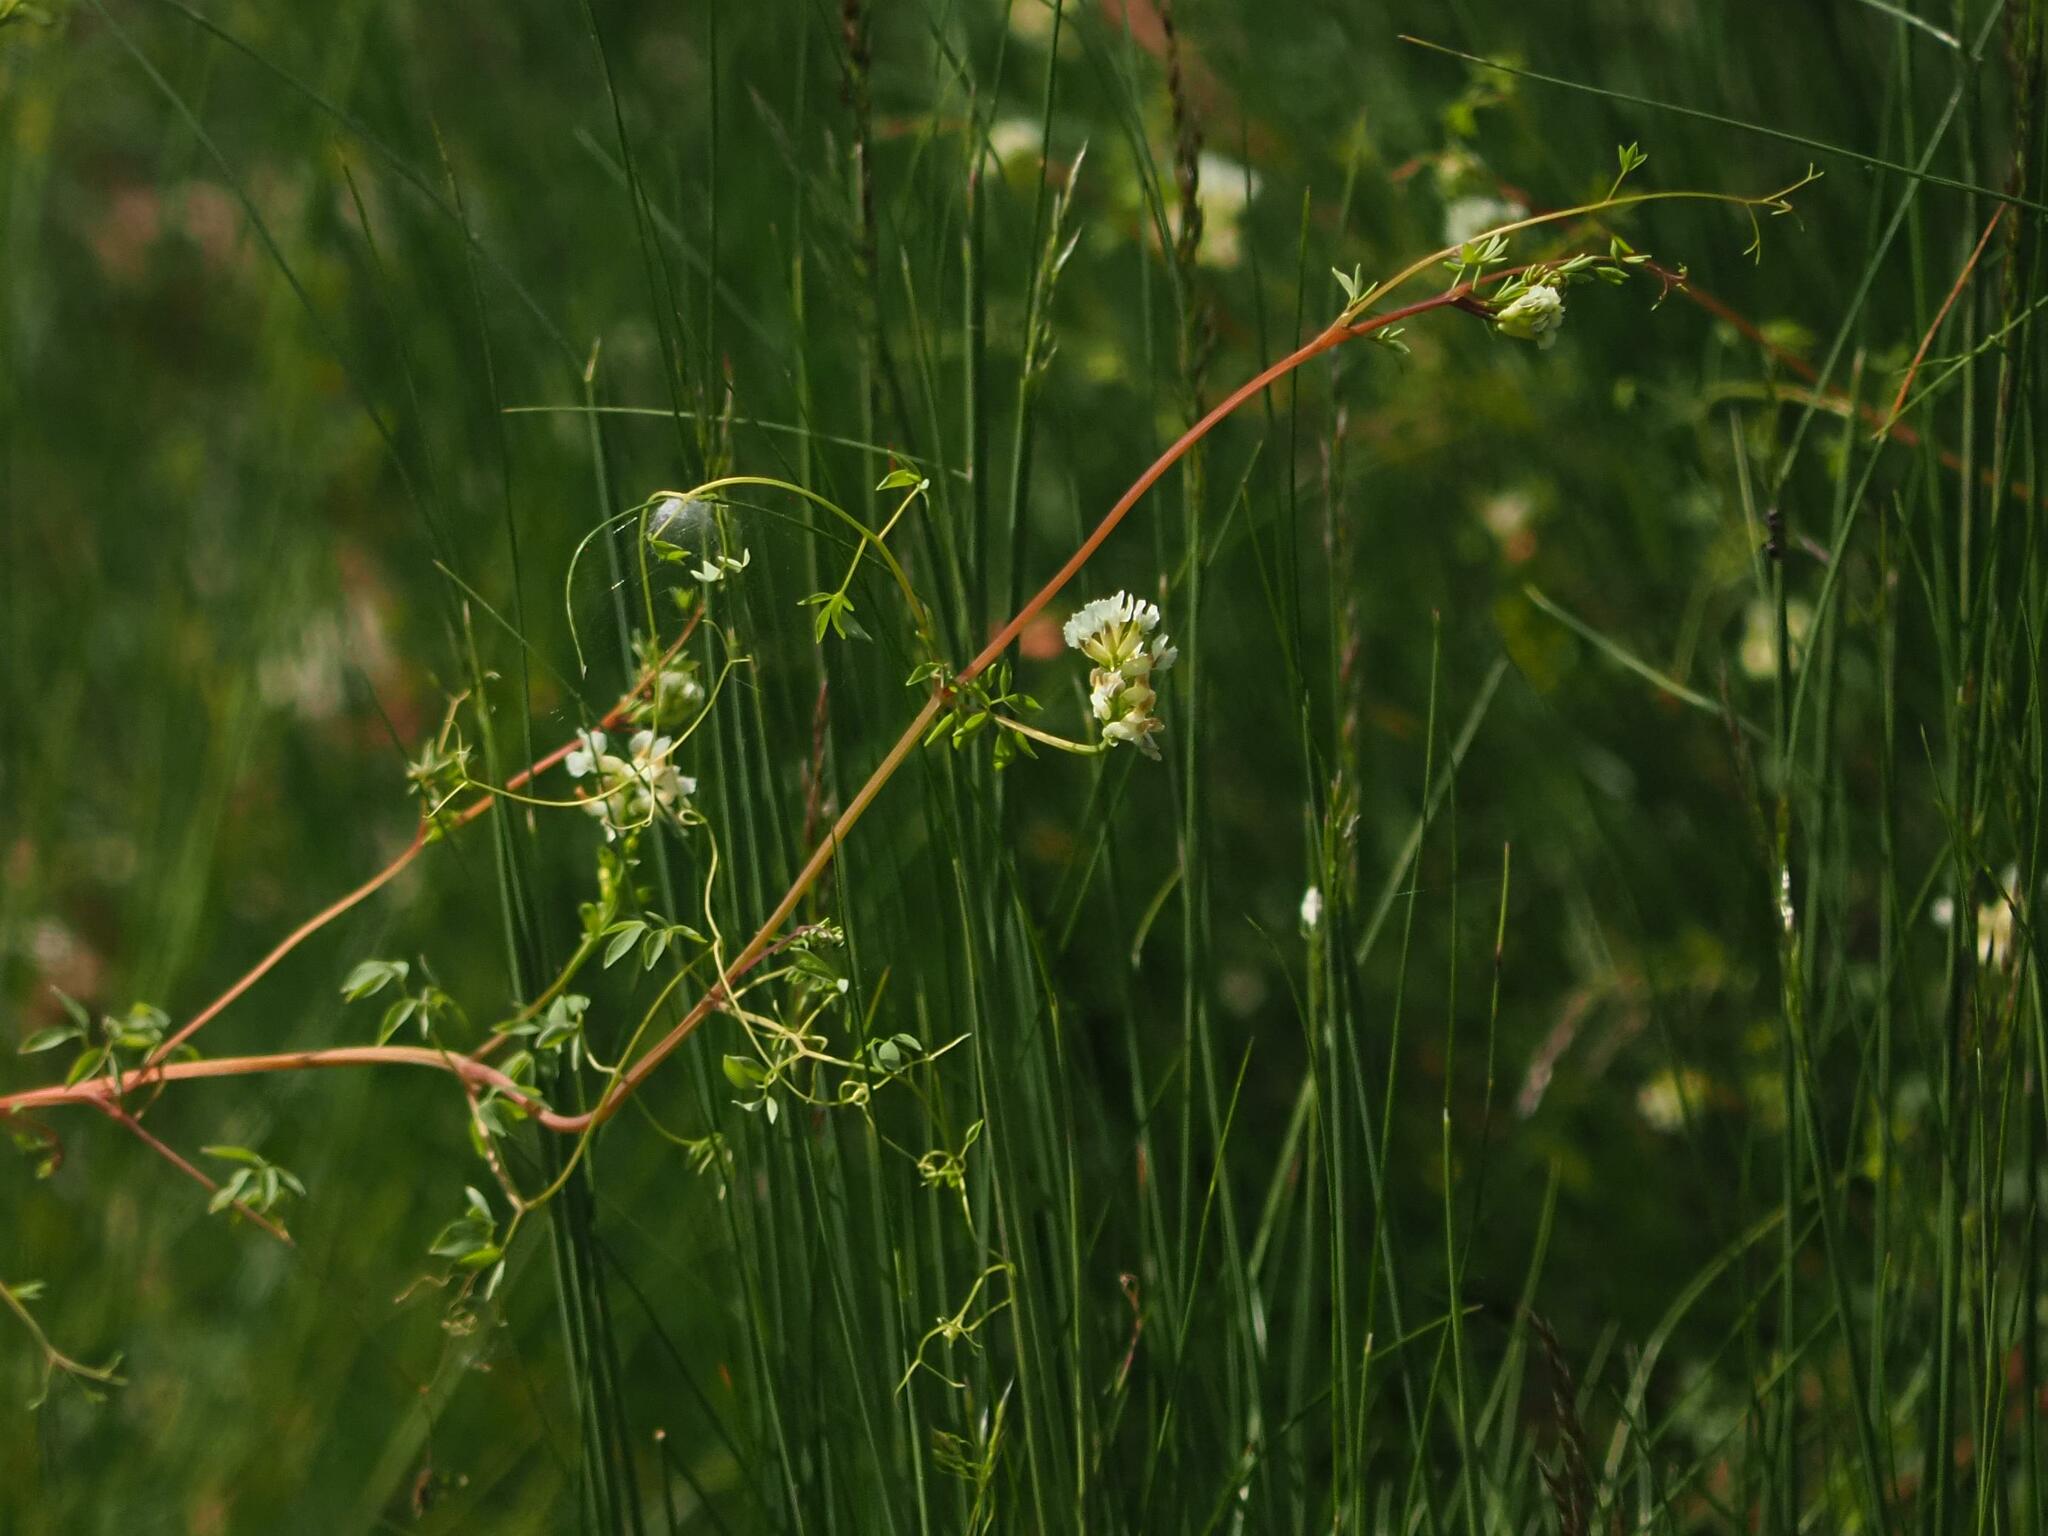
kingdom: Plantae
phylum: Tracheophyta
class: Magnoliopsida
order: Ranunculales
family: Papaveraceae
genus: Ceratocapnos
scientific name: Ceratocapnos claviculata
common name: Climbing corydalis
